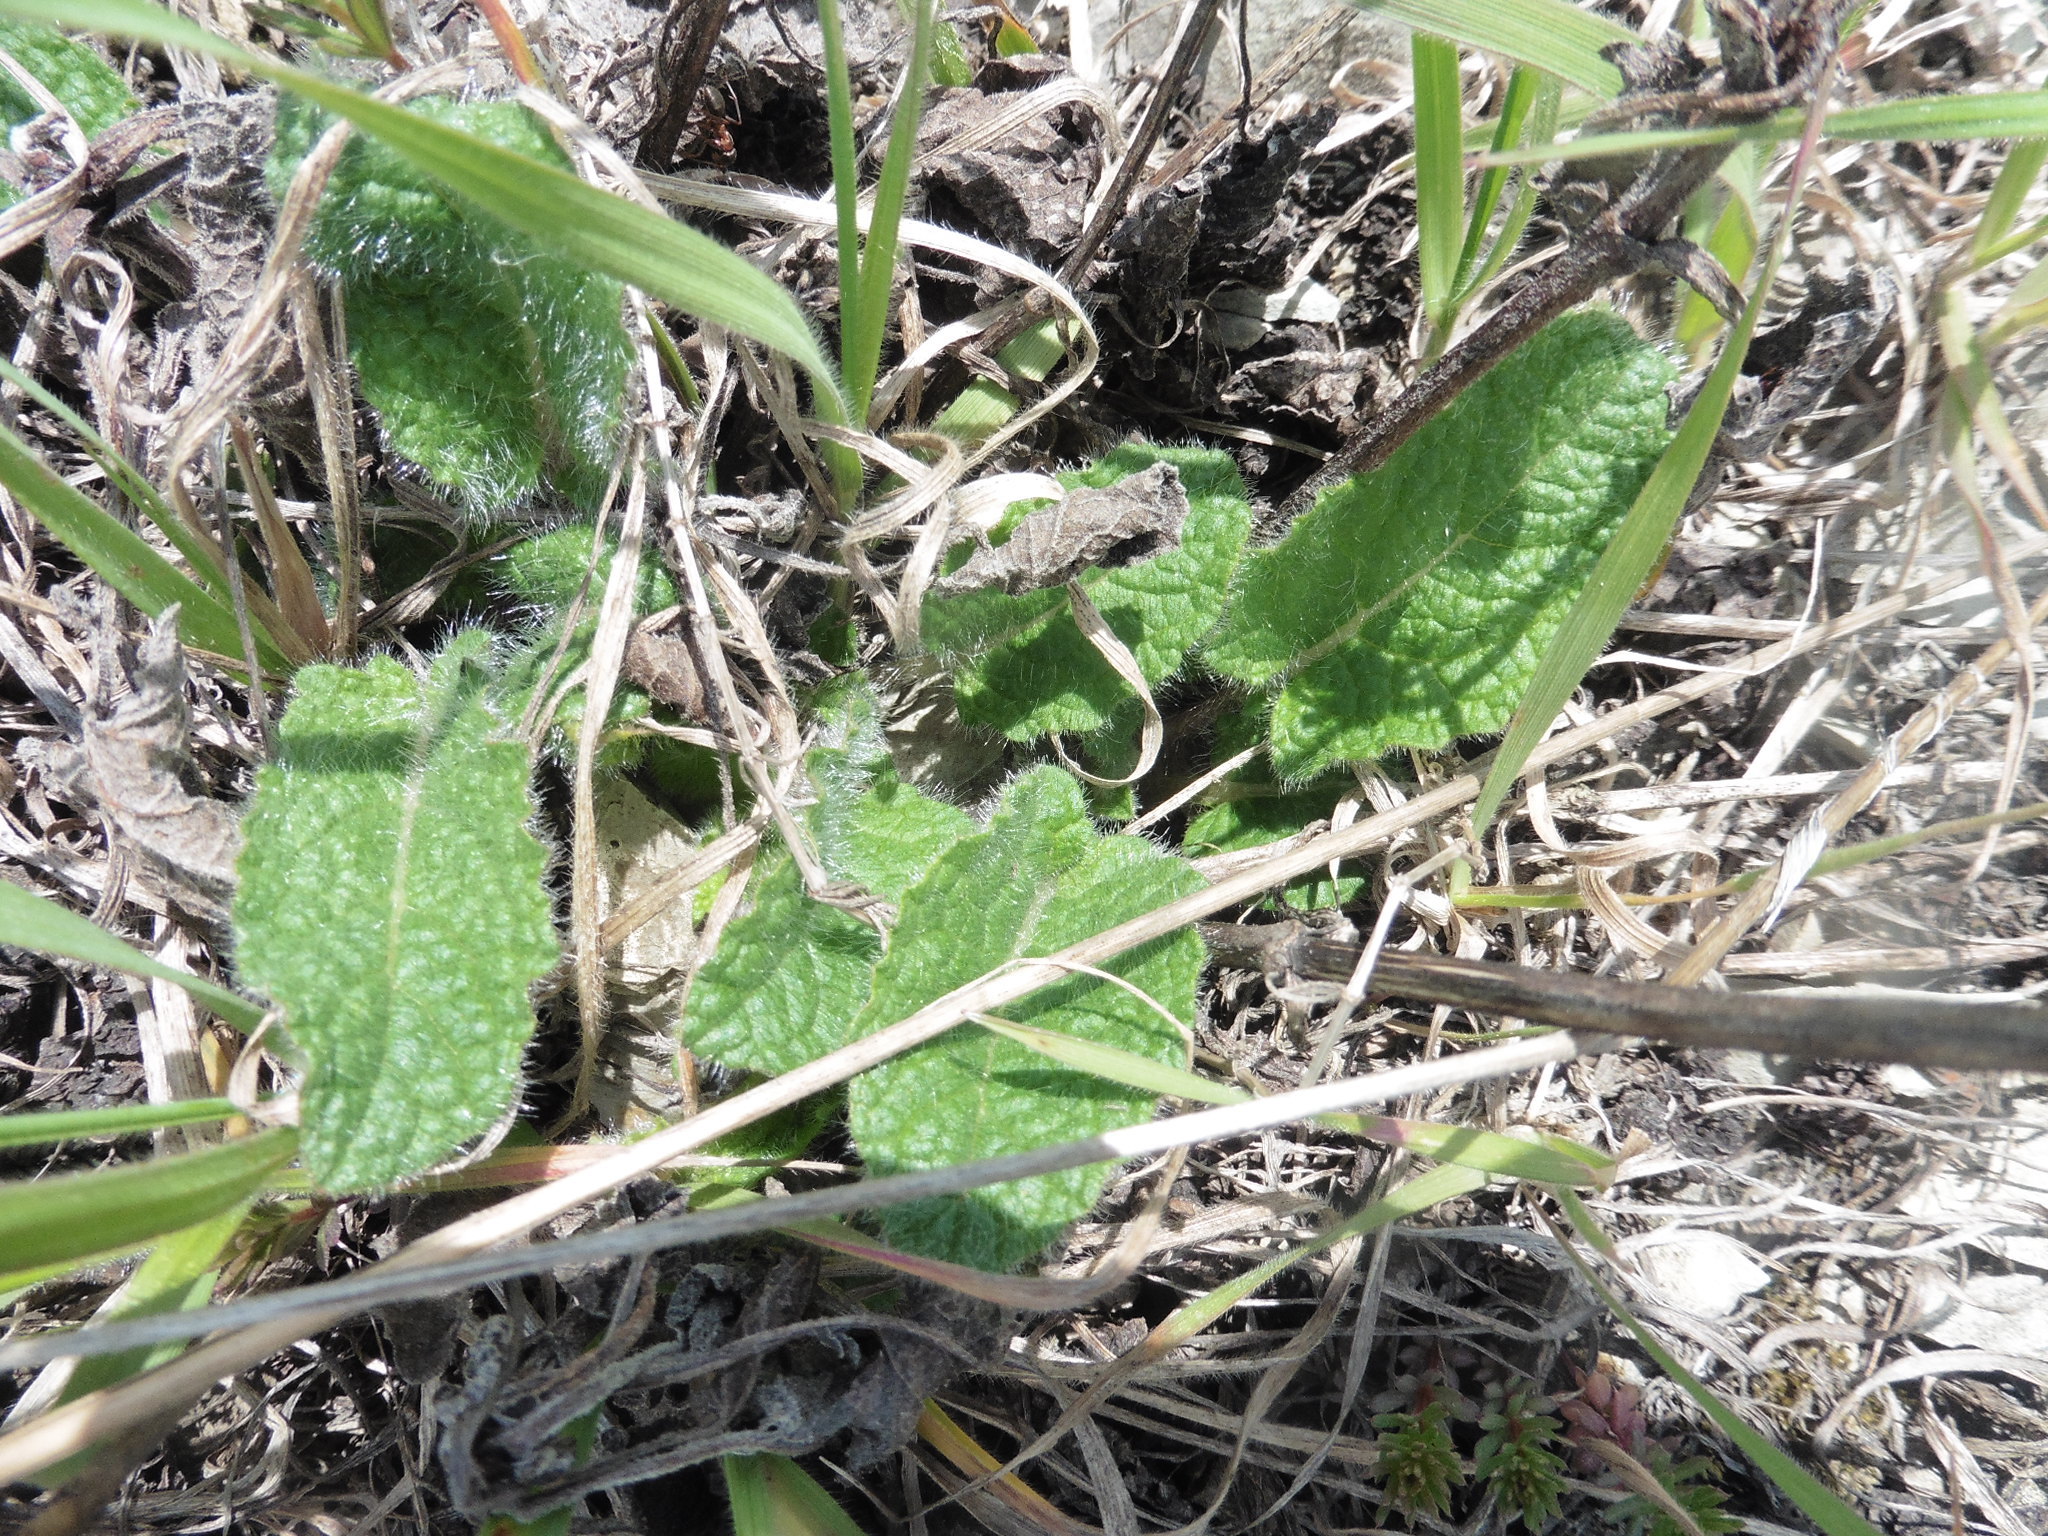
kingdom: Plantae
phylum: Tracheophyta
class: Magnoliopsida
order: Lamiales
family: Lamiaceae
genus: Salvia
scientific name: Salvia verticillata
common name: Whorled clary
